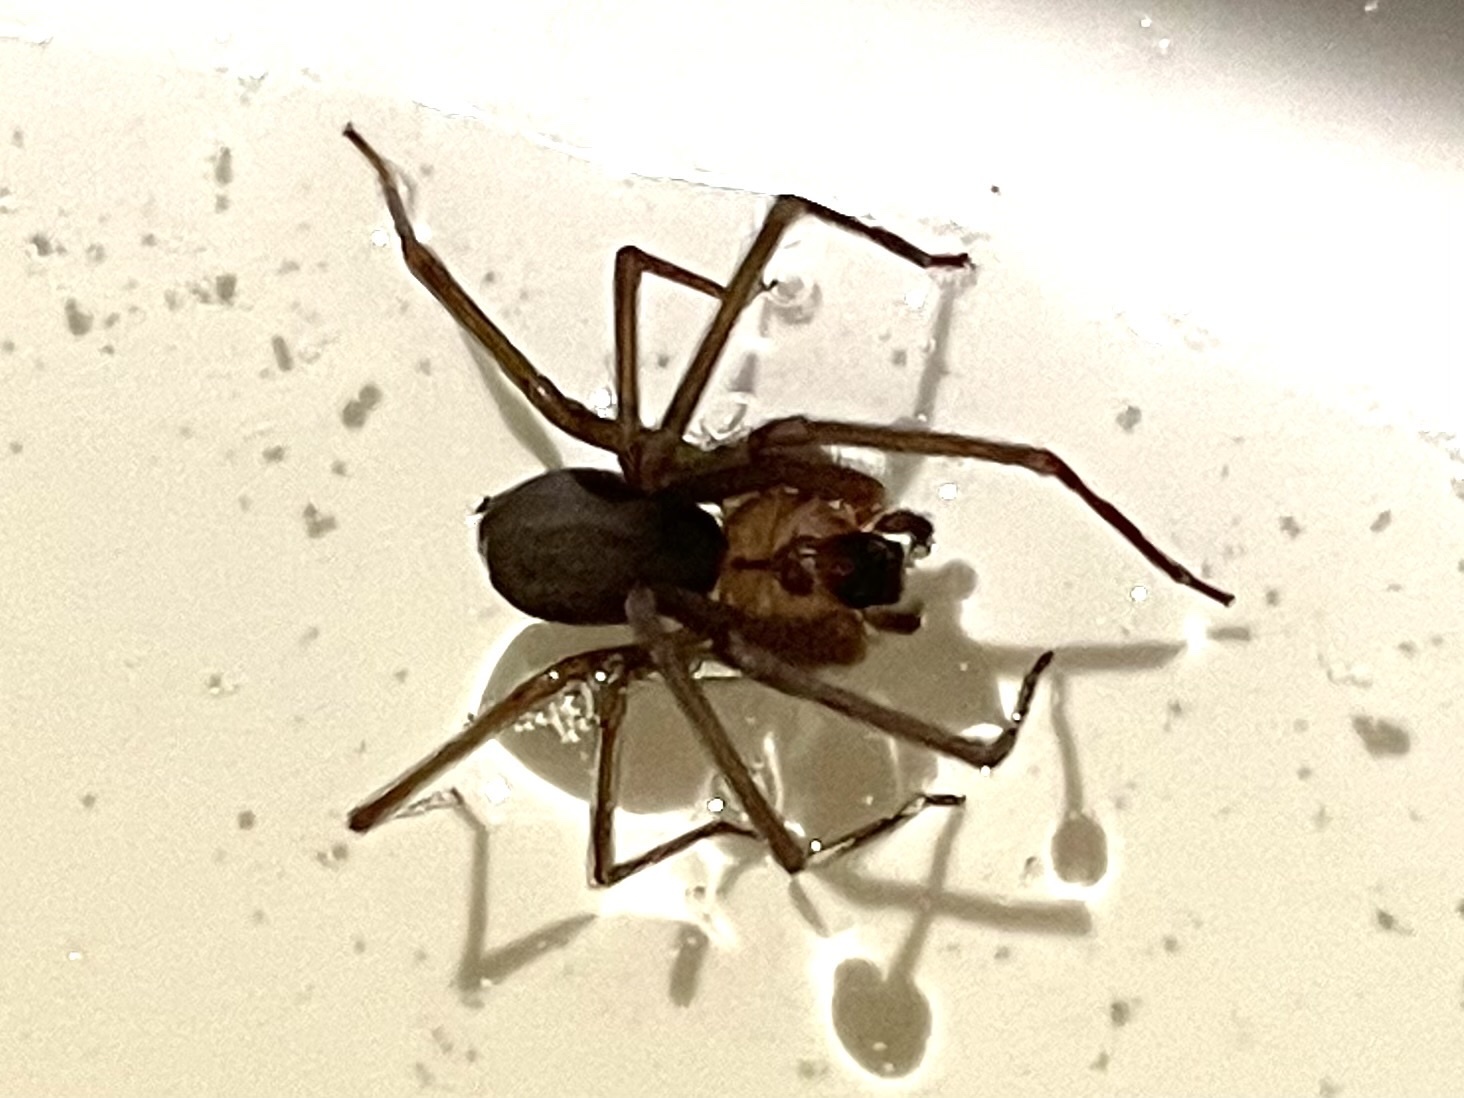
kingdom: Animalia
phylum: Arthropoda
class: Arachnida
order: Araneae
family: Sicariidae
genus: Loxosceles
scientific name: Loxosceles reclusa
